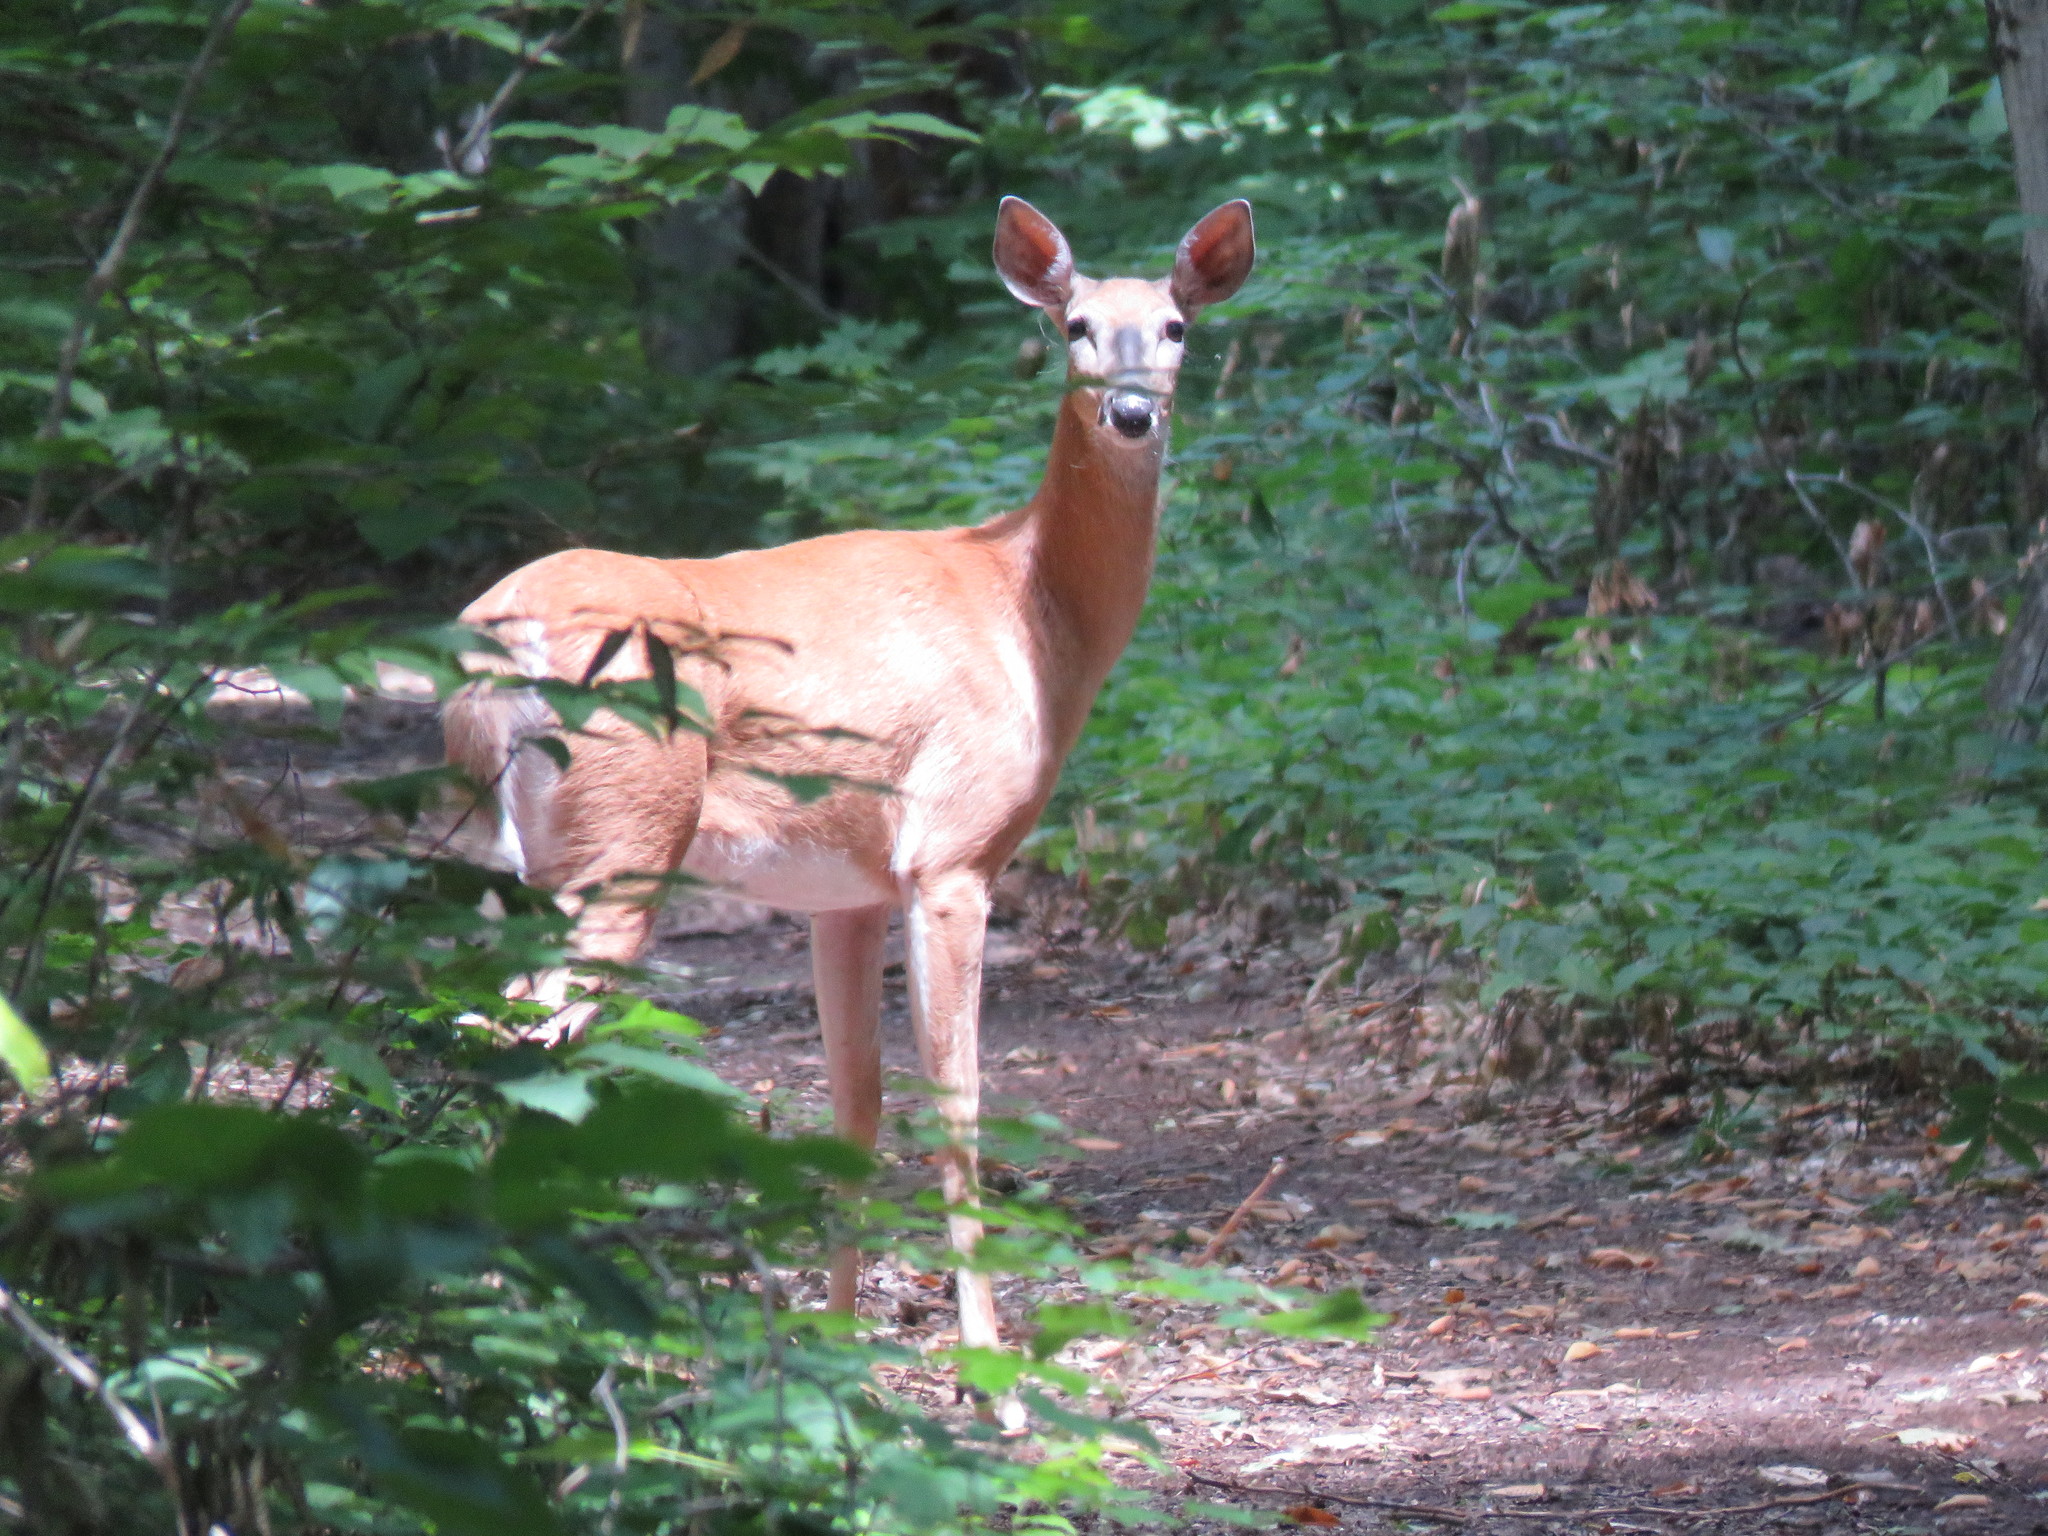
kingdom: Animalia
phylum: Chordata
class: Mammalia
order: Artiodactyla
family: Cervidae
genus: Odocoileus
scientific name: Odocoileus virginianus
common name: White-tailed deer
